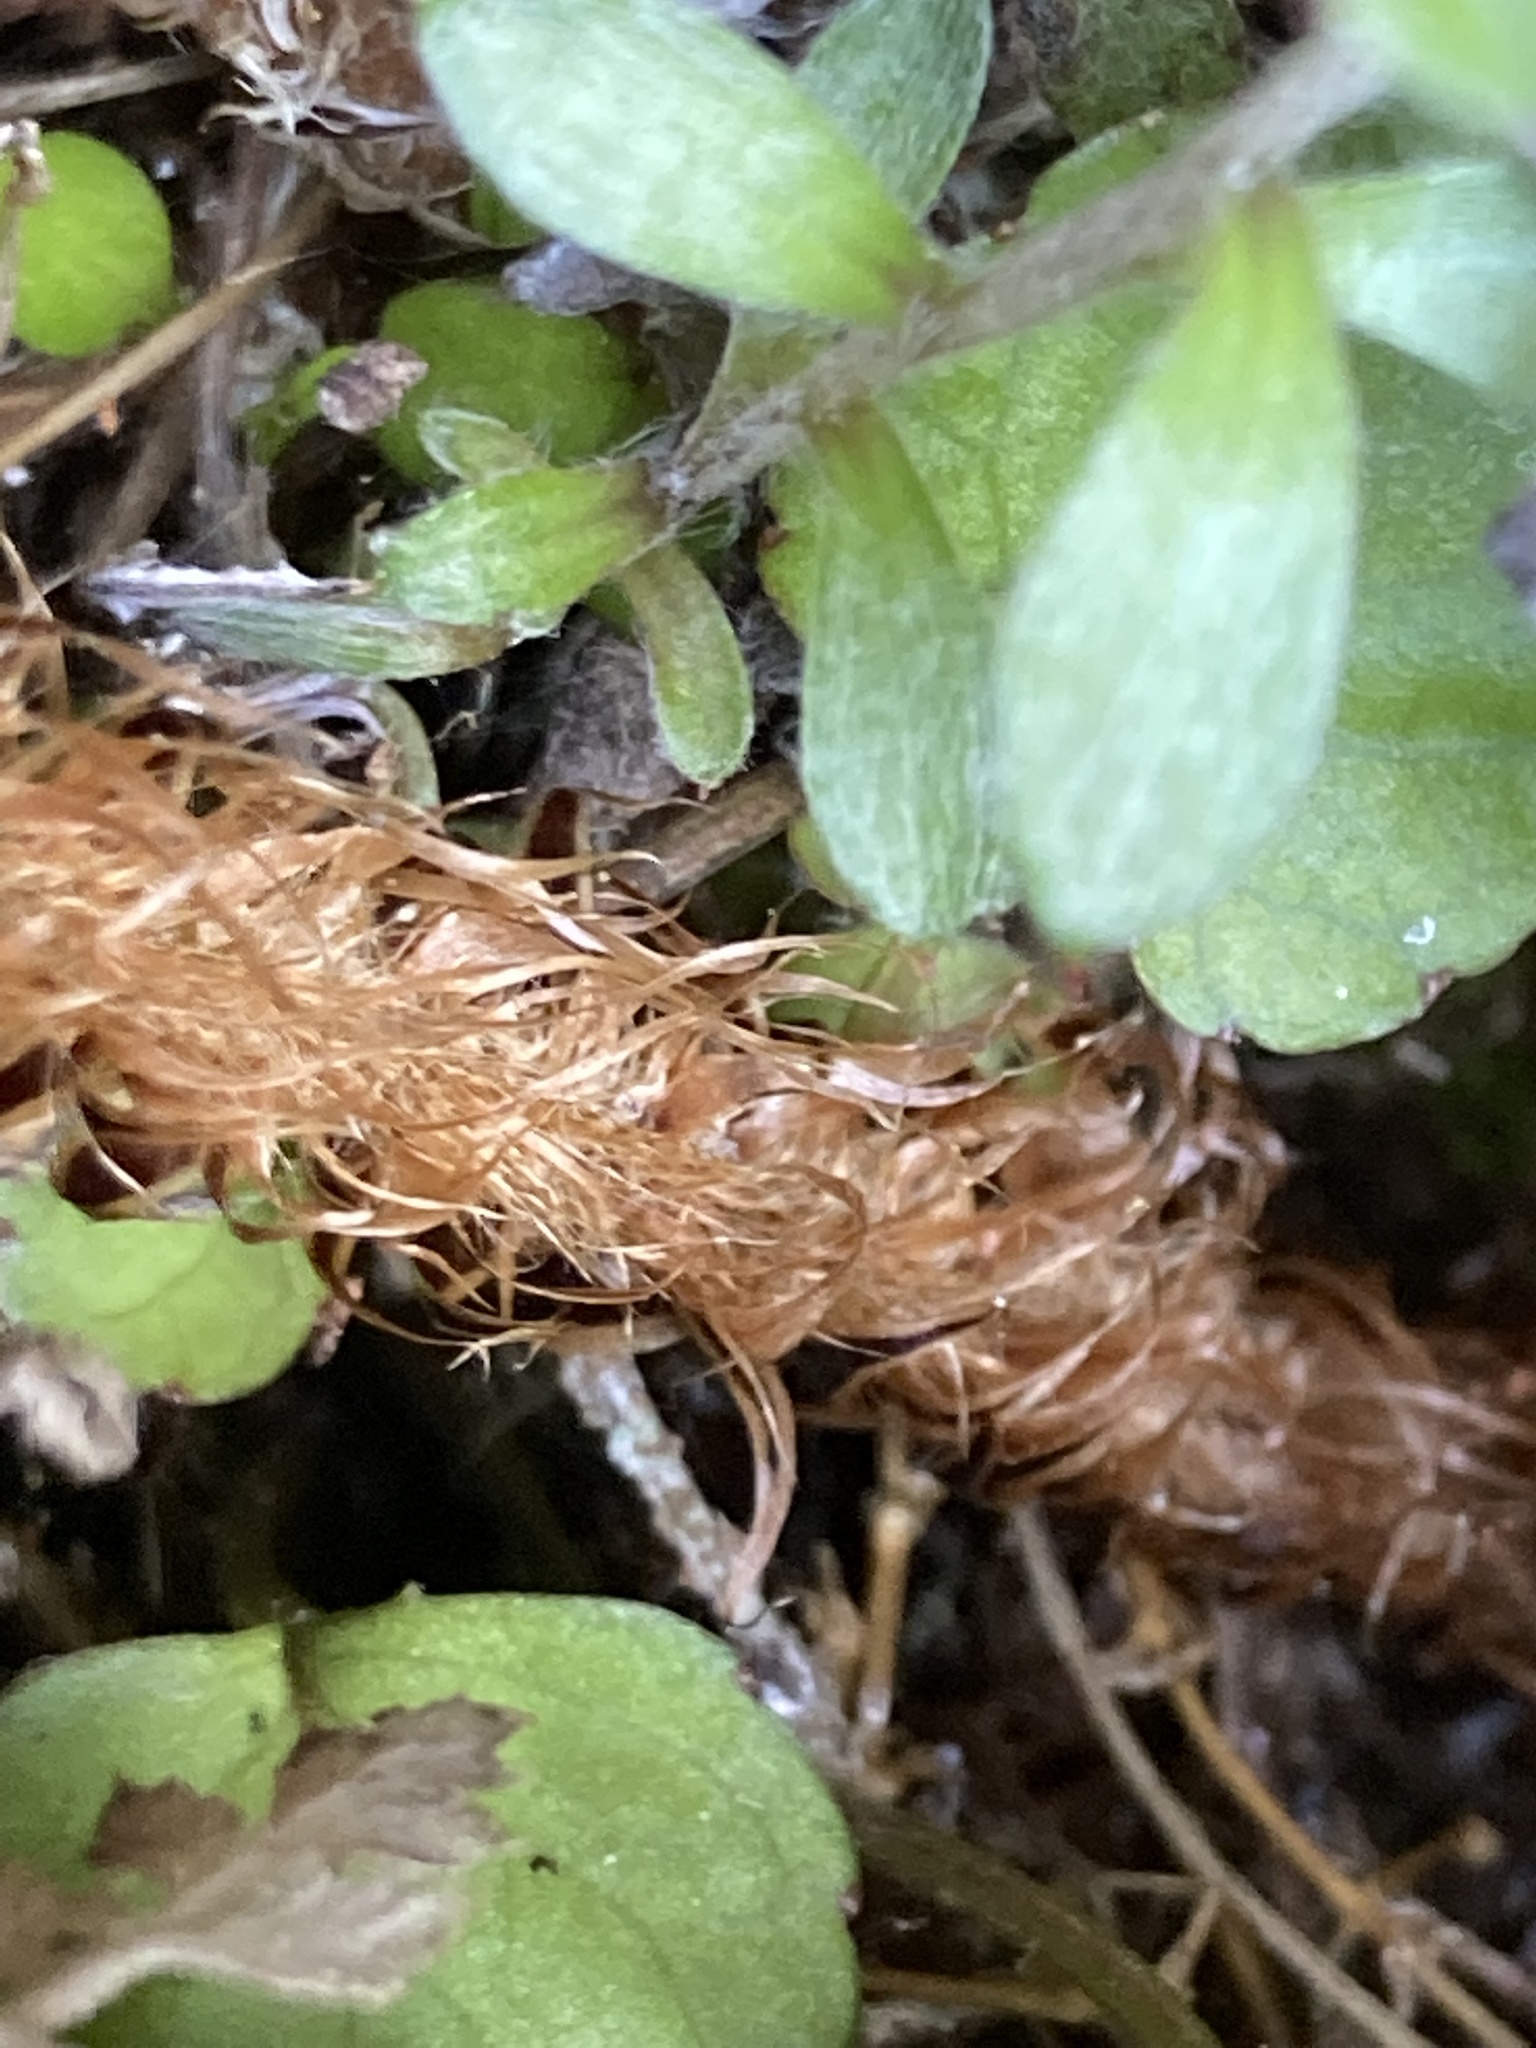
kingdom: Plantae
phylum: Tracheophyta
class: Polypodiopsida
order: Polypodiales
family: Dryopteridaceae
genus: Polystichum
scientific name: Polystichum vestitum
